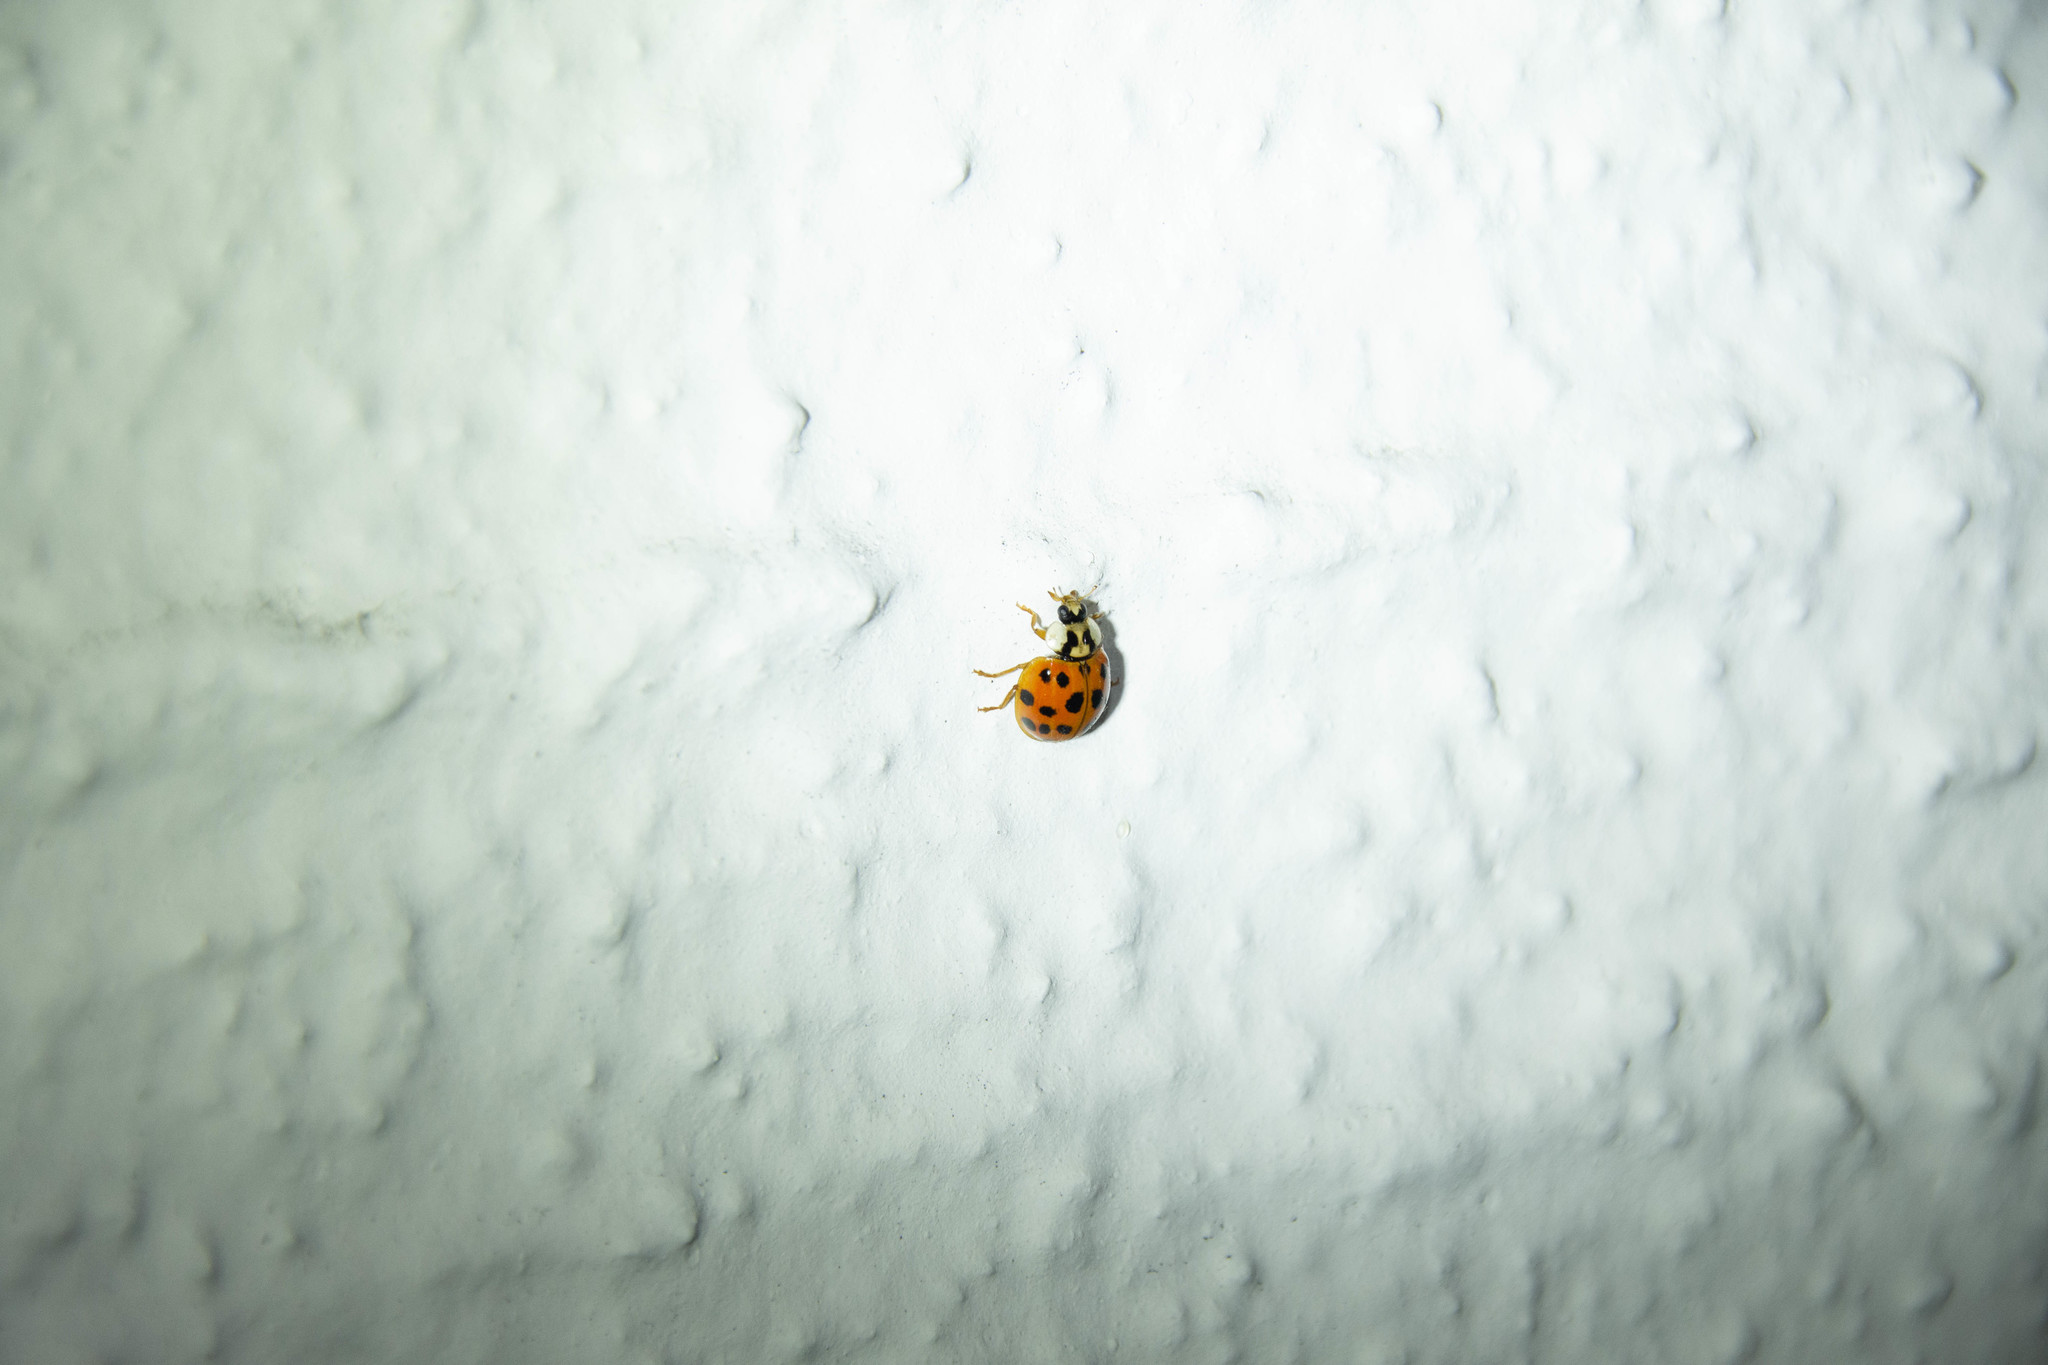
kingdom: Animalia
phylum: Arthropoda
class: Insecta
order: Coleoptera
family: Coccinellidae
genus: Harmonia
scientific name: Harmonia axyridis
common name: Harlequin ladybird
